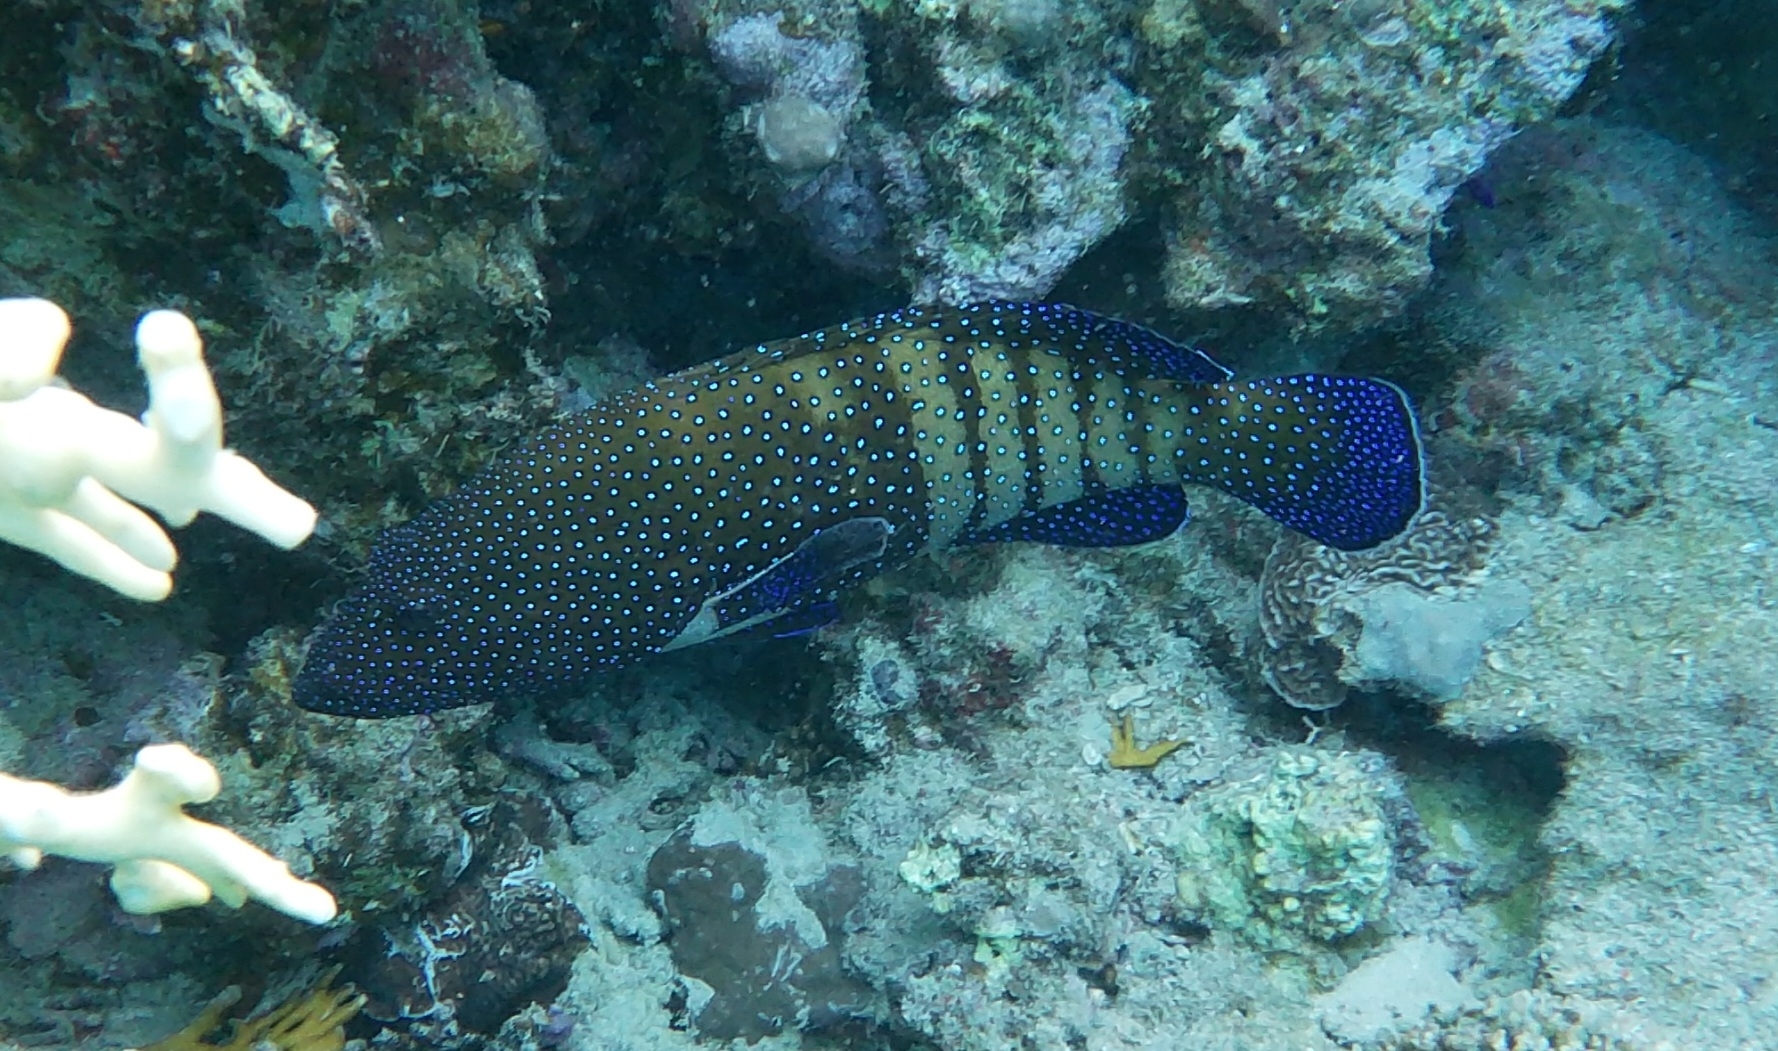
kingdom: Animalia
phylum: Chordata
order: Perciformes
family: Serranidae
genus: Cephalopholis
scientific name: Cephalopholis argus
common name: Peacock grouper
